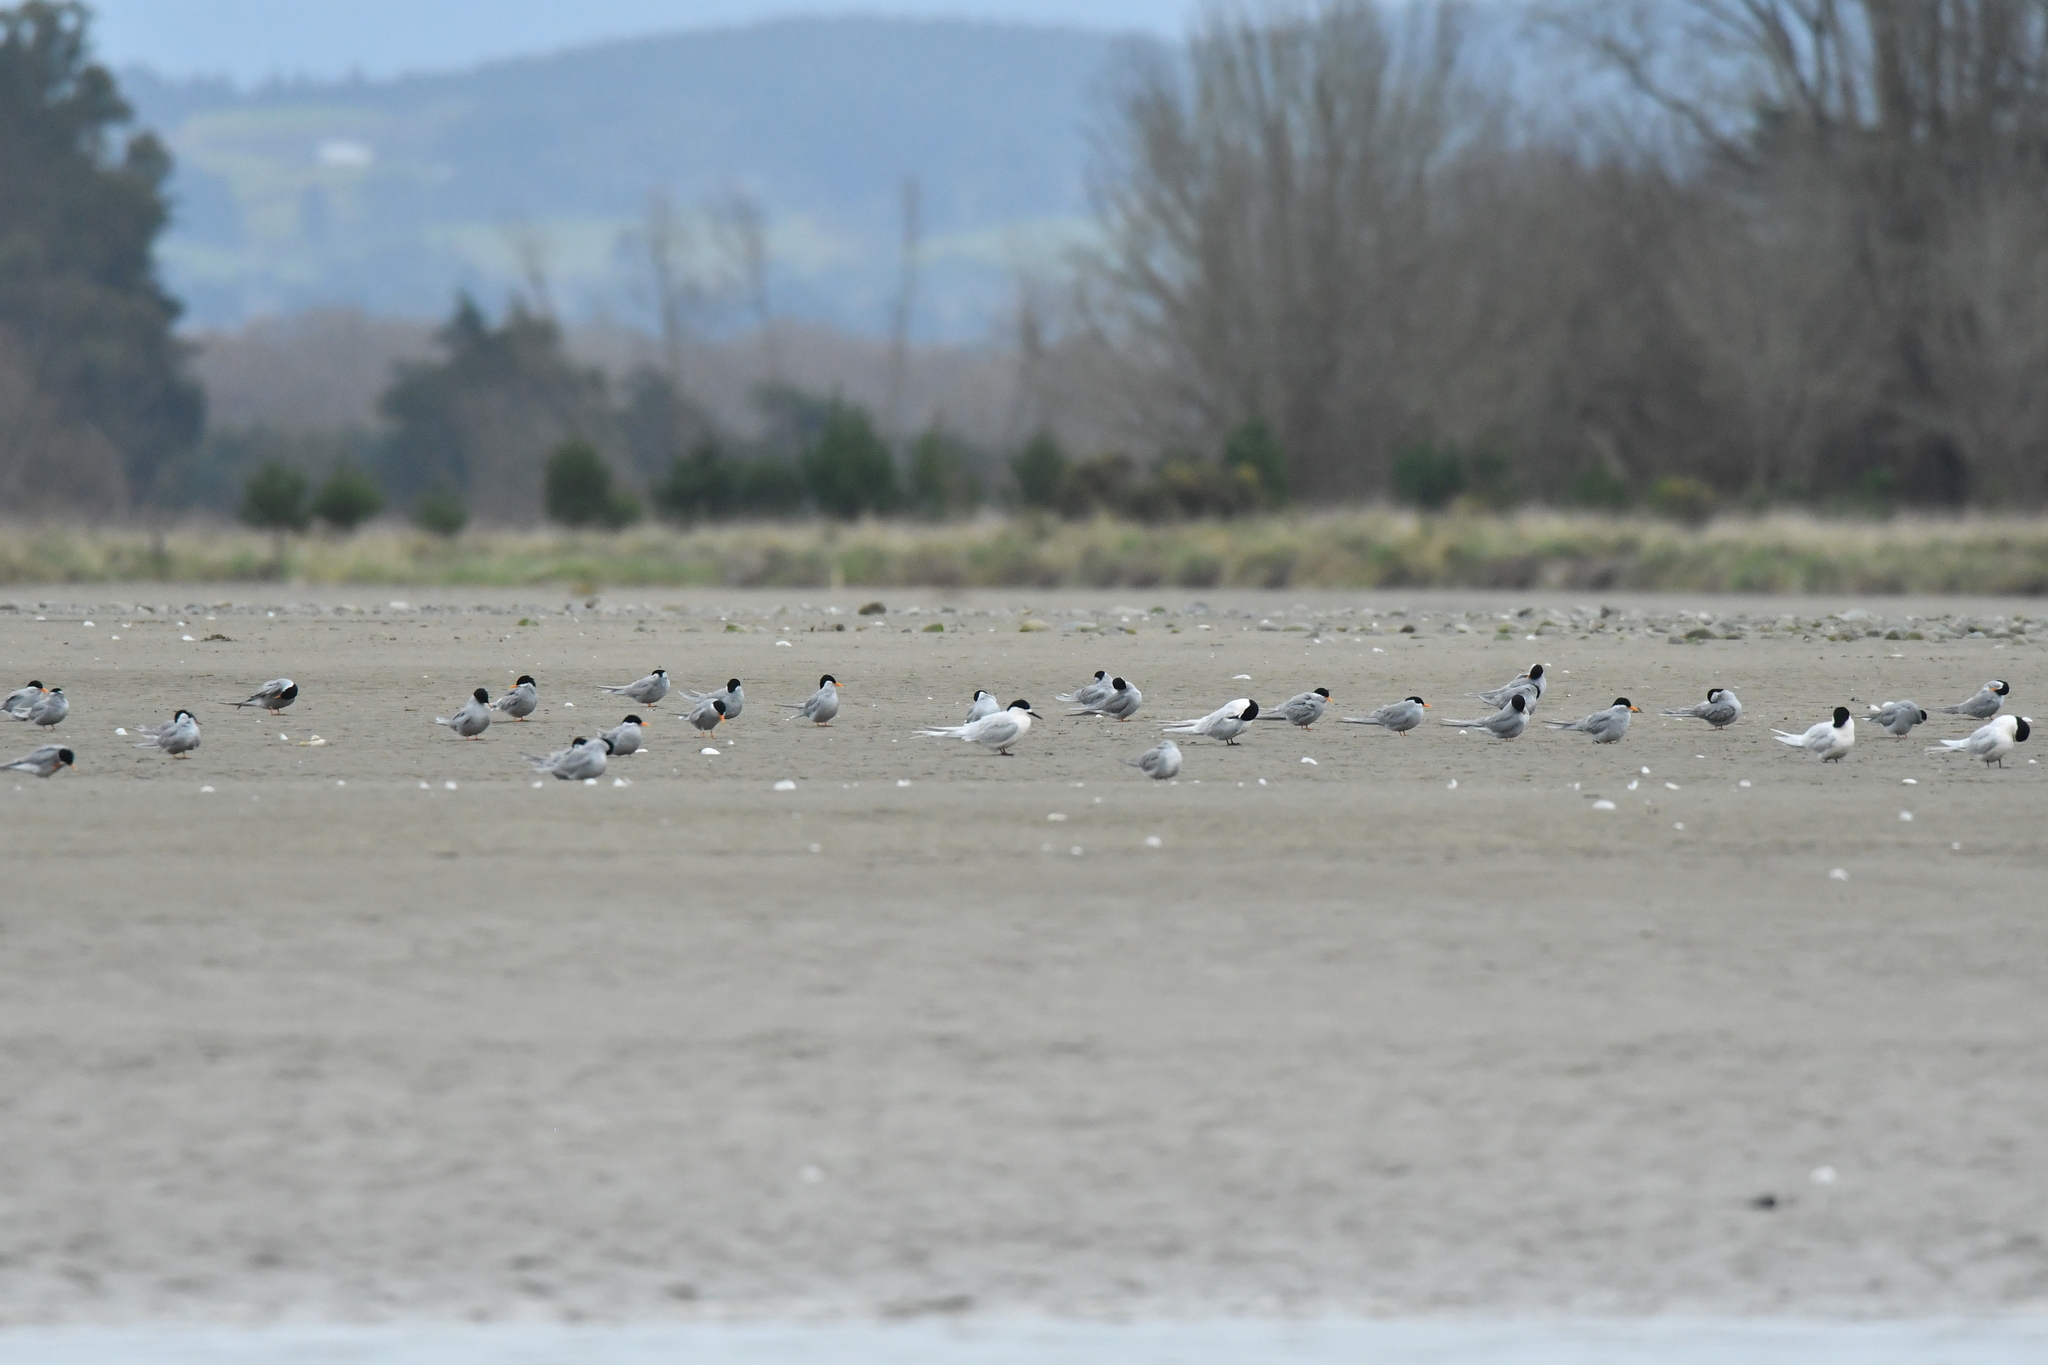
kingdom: Animalia
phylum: Chordata
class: Aves
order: Charadriiformes
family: Laridae
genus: Chlidonias
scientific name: Chlidonias albostriatus
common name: Black-fronted tern
